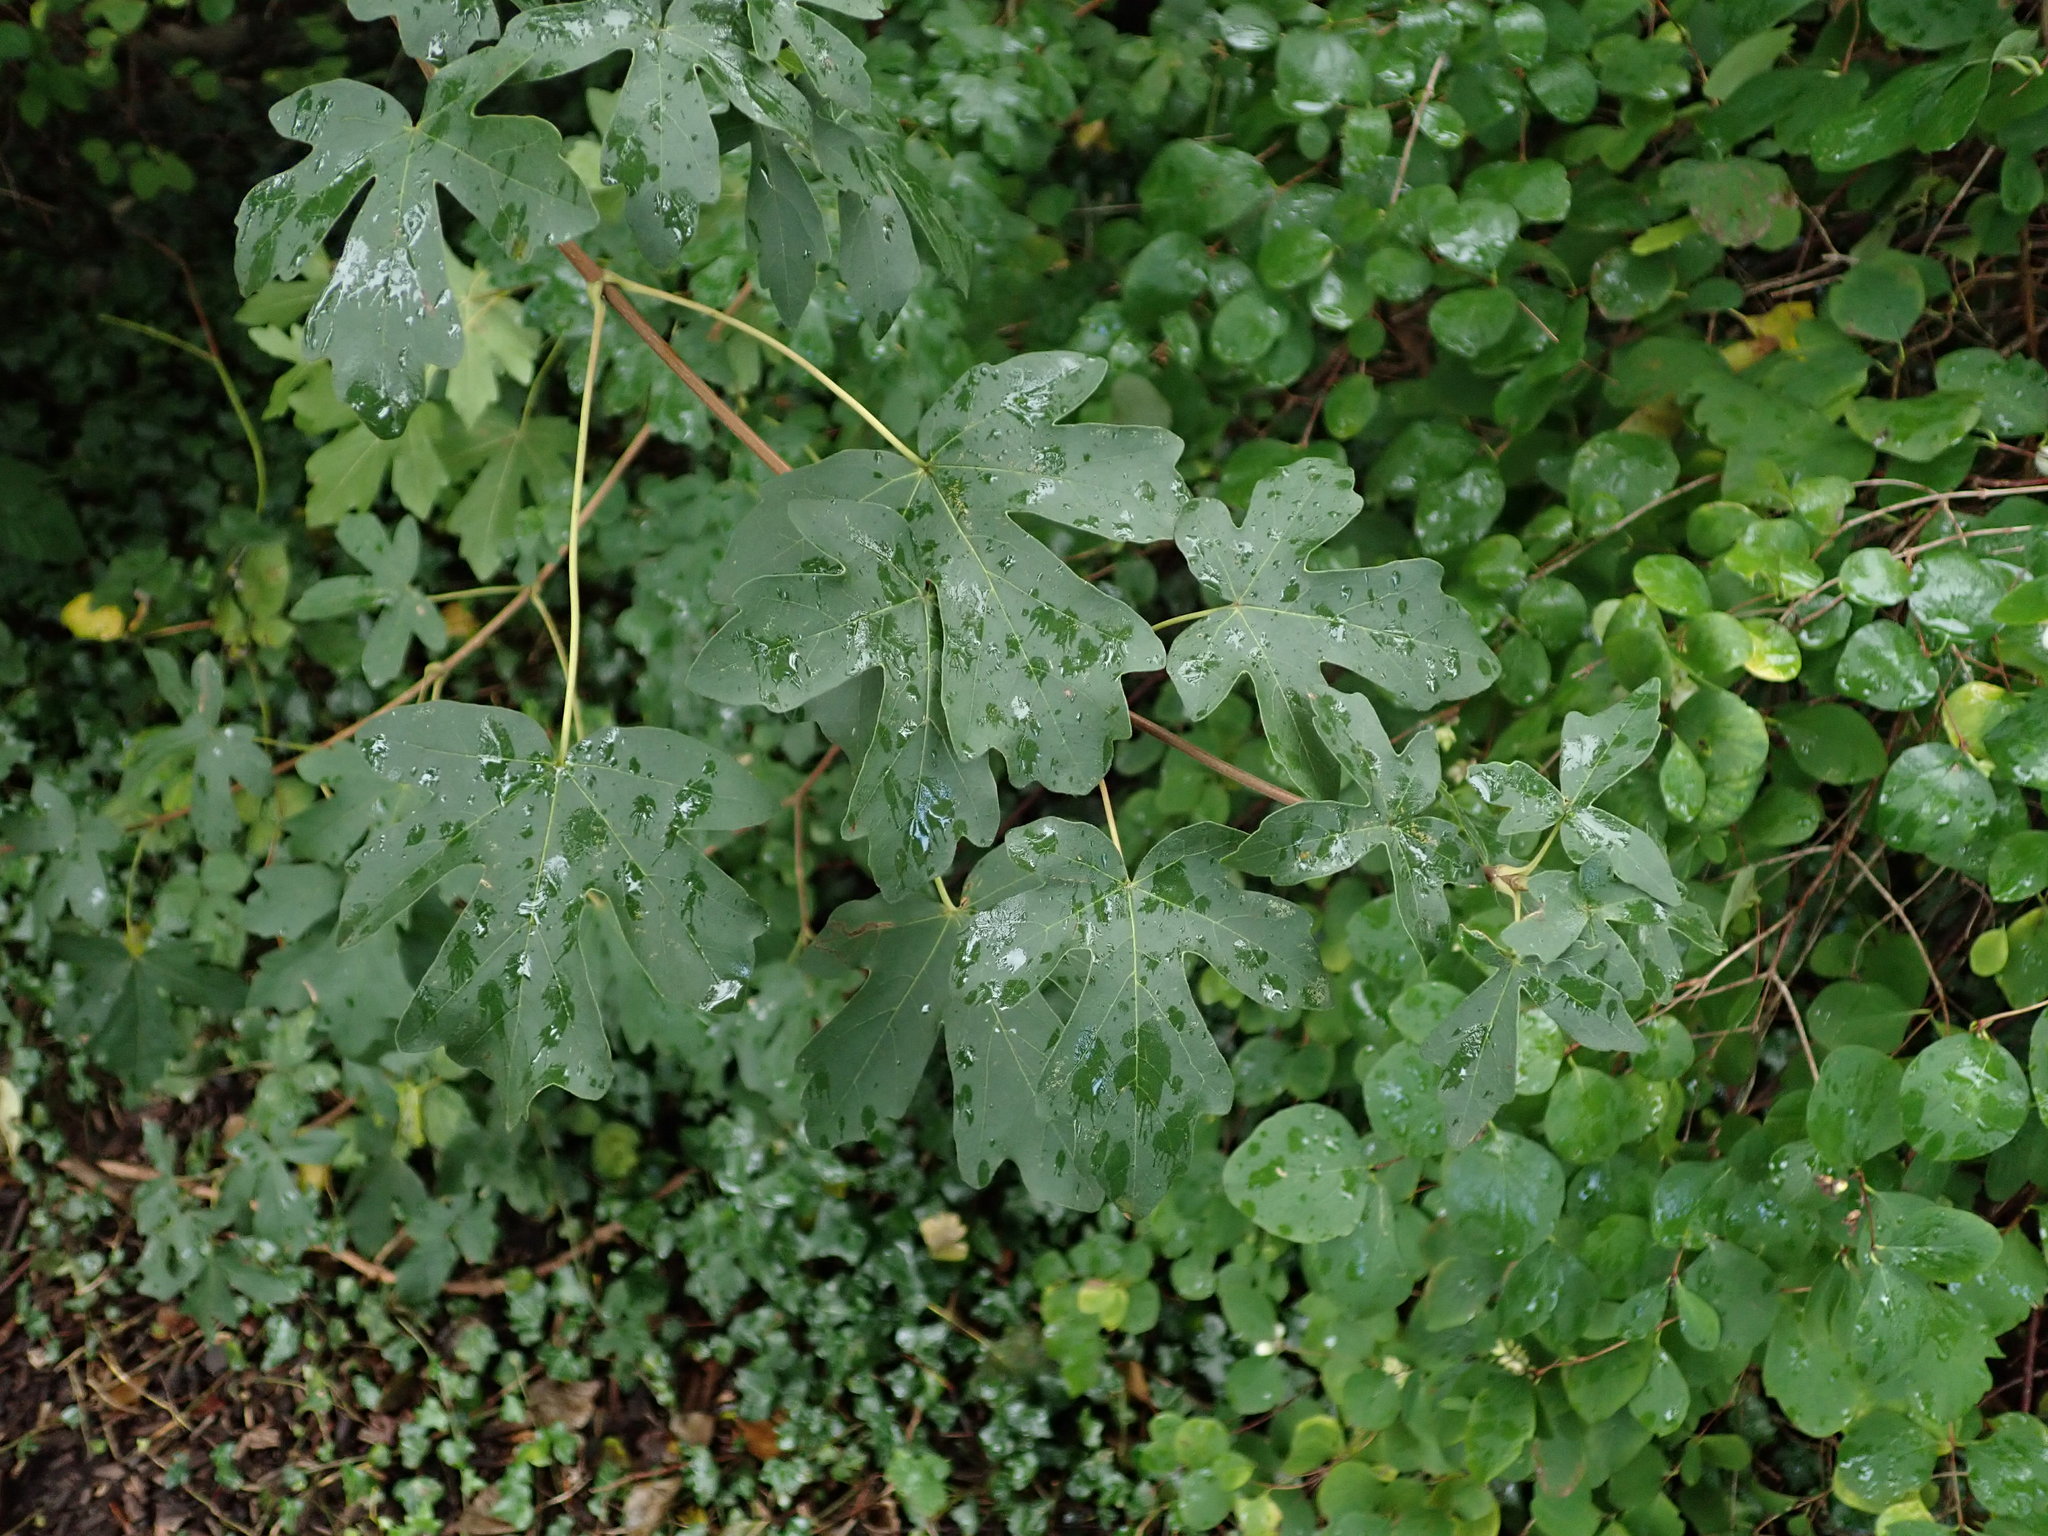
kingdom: Plantae
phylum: Tracheophyta
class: Magnoliopsida
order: Sapindales
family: Sapindaceae
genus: Acer
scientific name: Acer campestre
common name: Field maple
